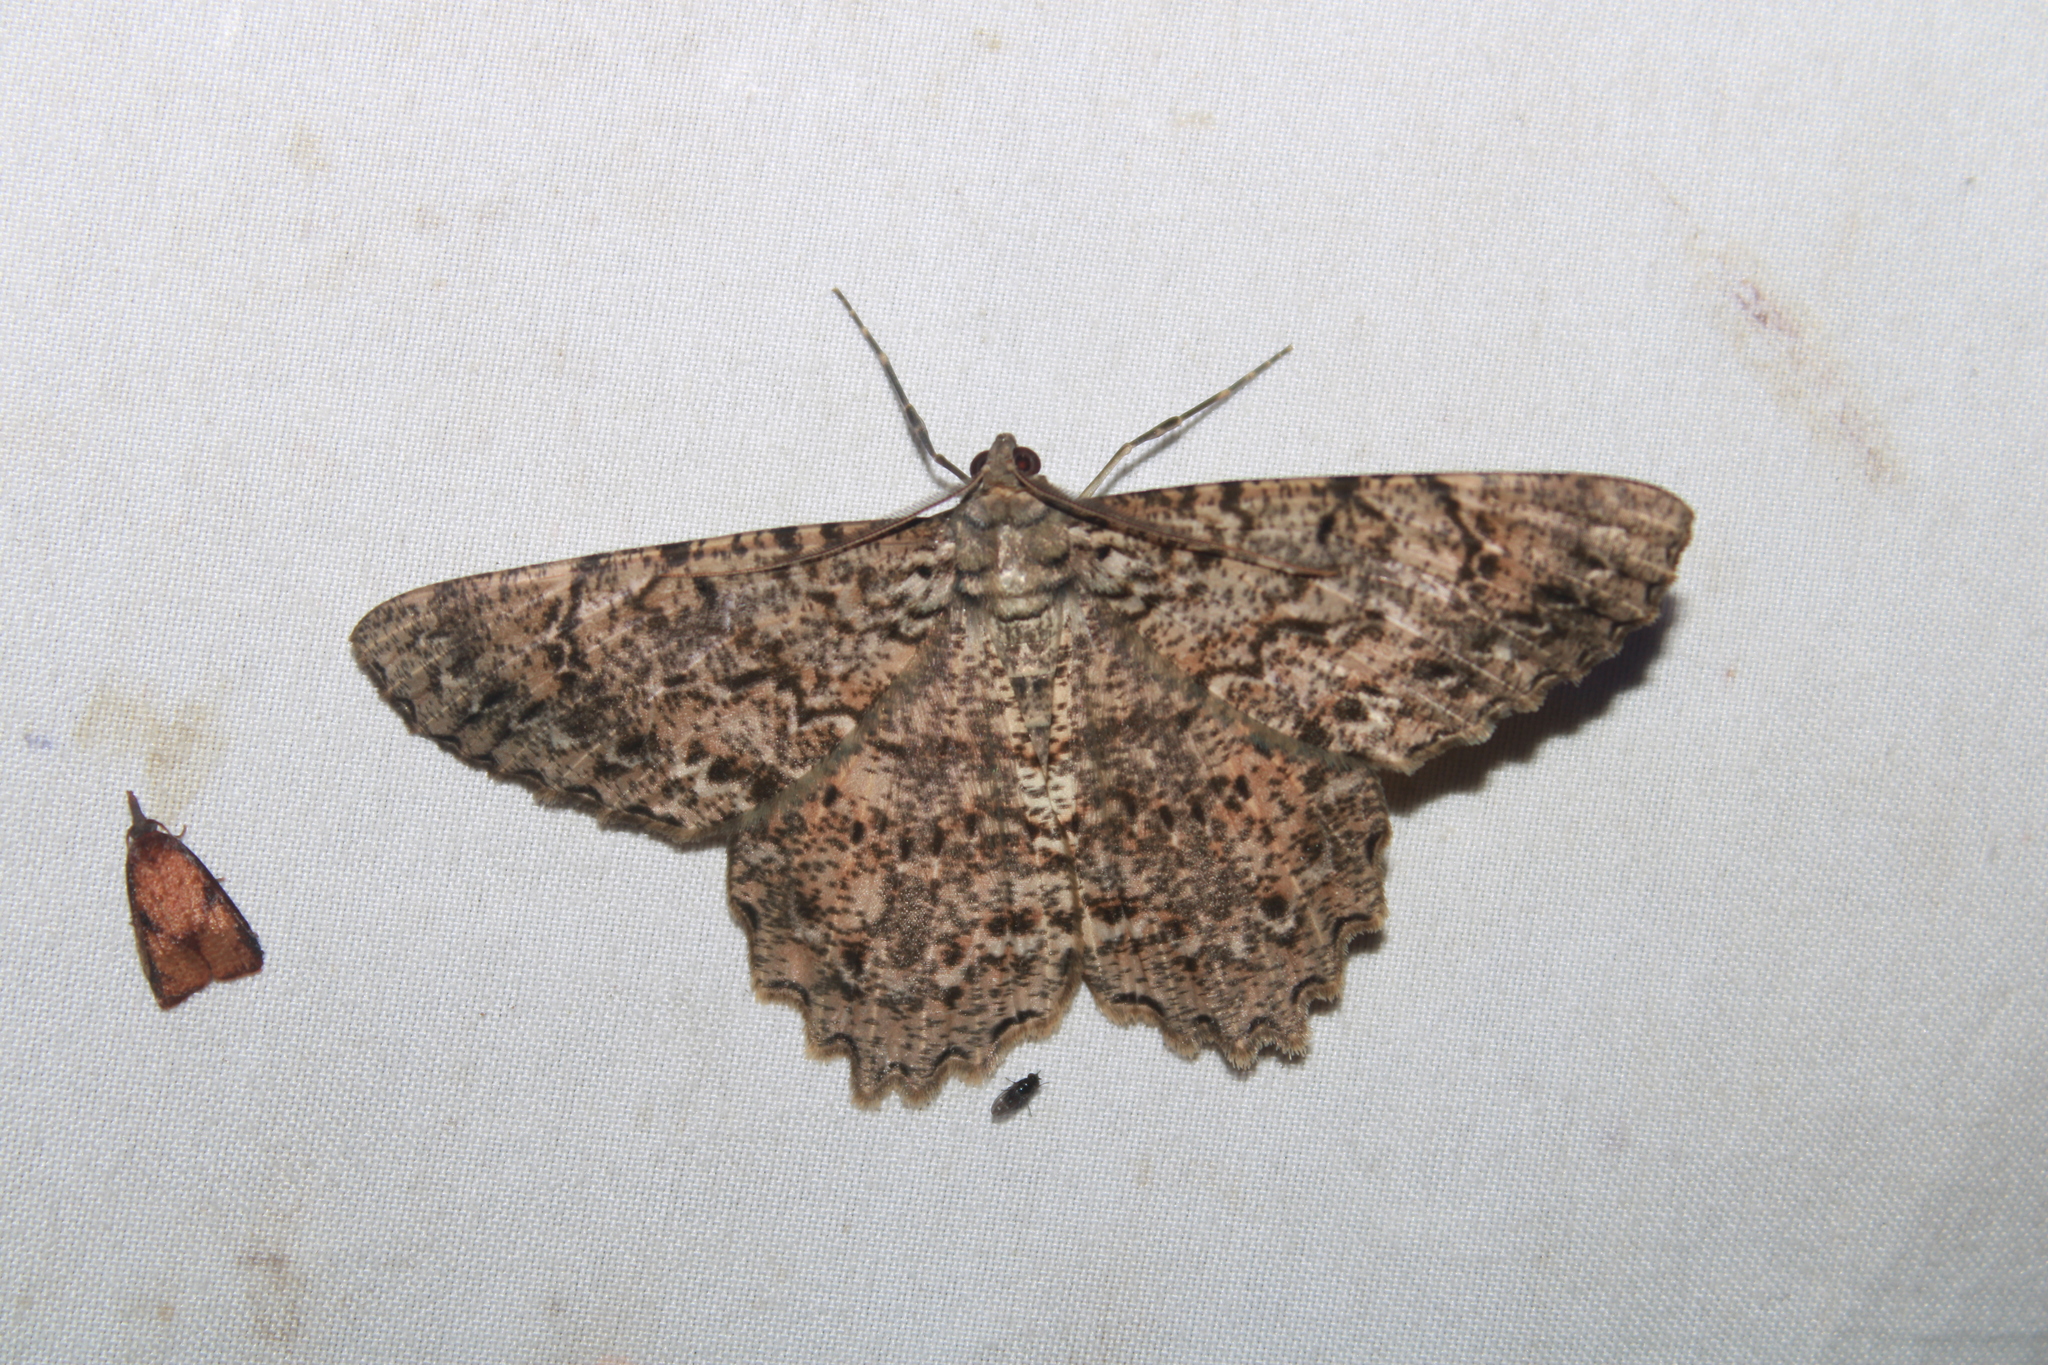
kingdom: Animalia
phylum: Arthropoda
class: Insecta
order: Lepidoptera
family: Geometridae
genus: Epimecis
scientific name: Epimecis matronaria
